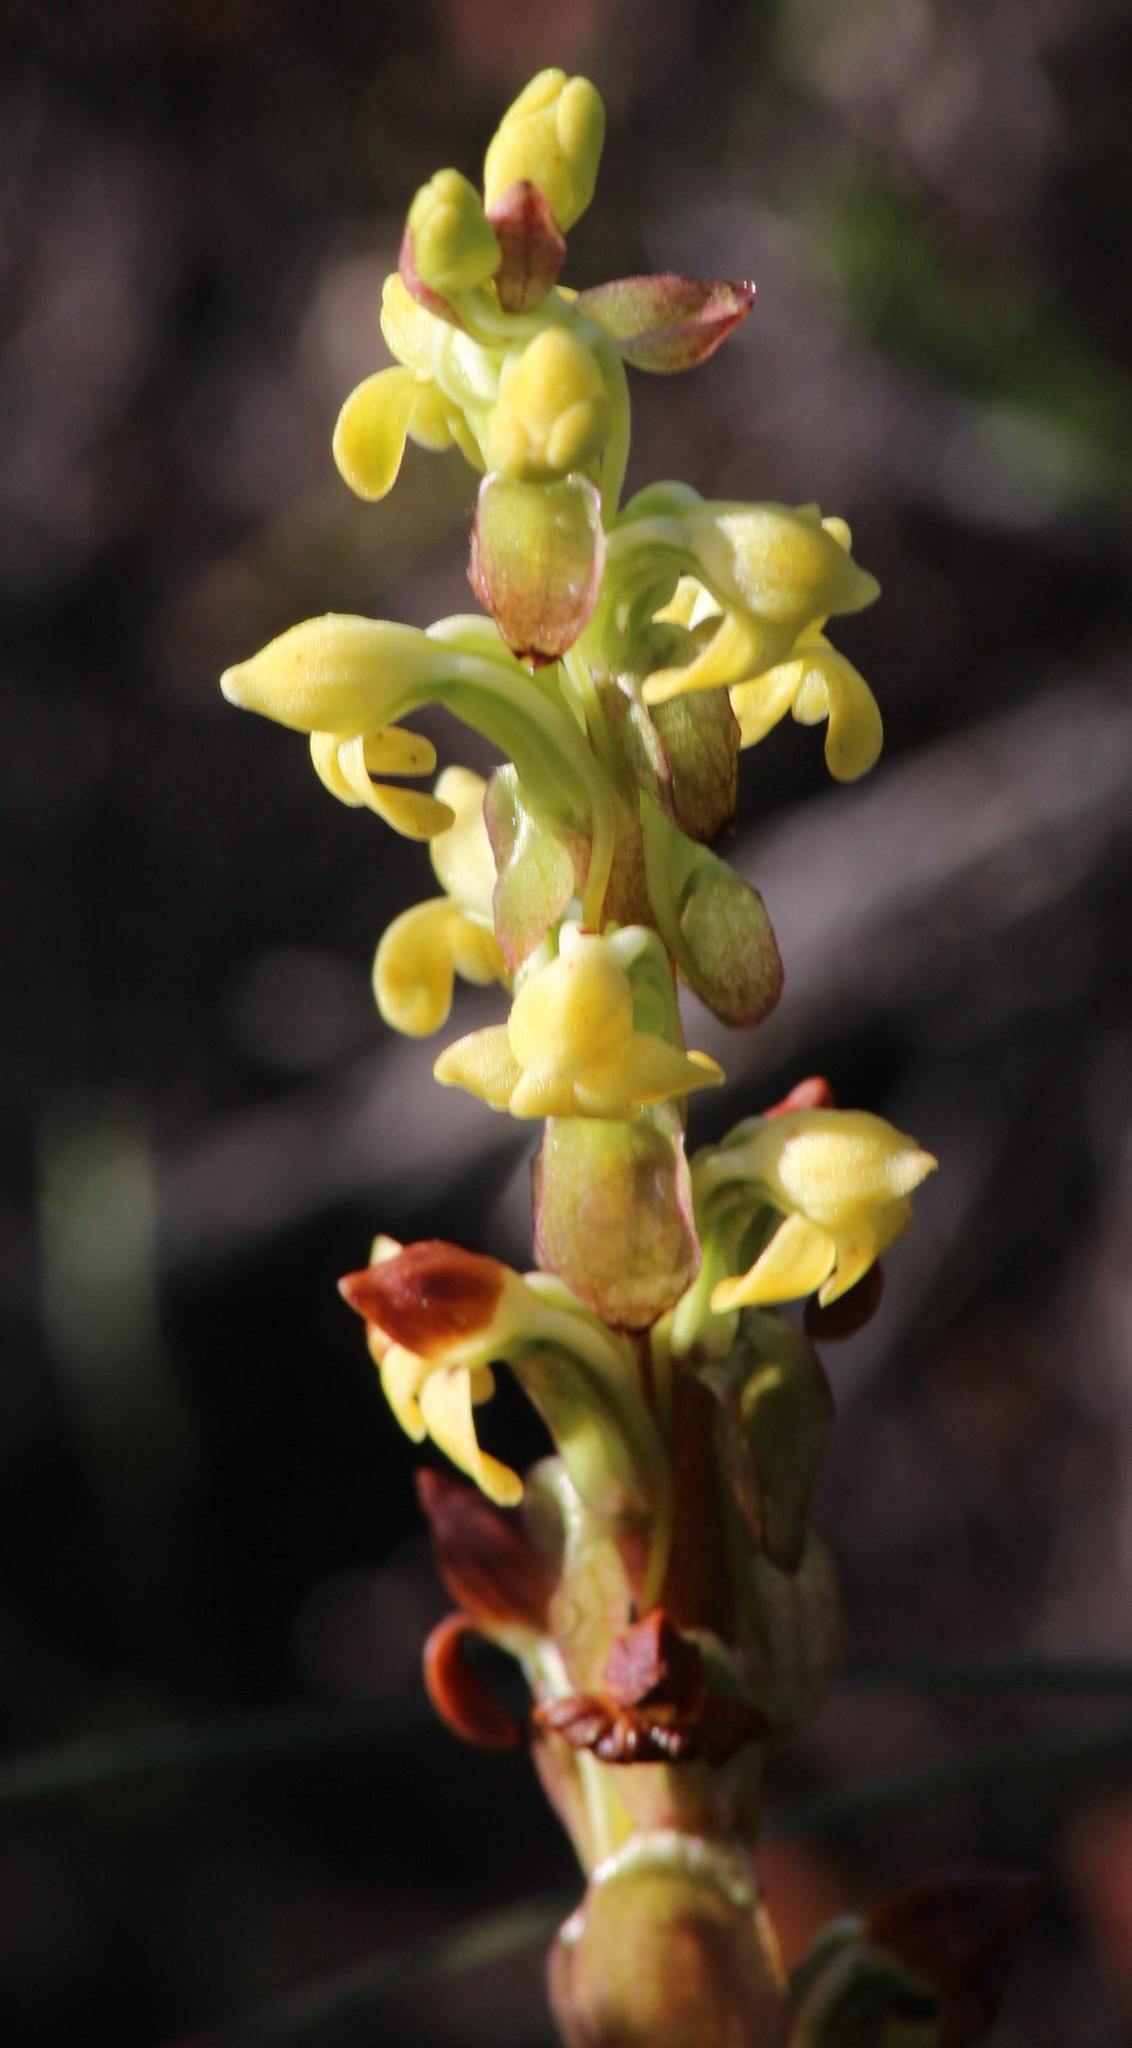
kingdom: Plantae
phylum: Tracheophyta
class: Liliopsida
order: Asparagales
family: Orchidaceae
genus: Satyrium
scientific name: Satyrium bicorne
